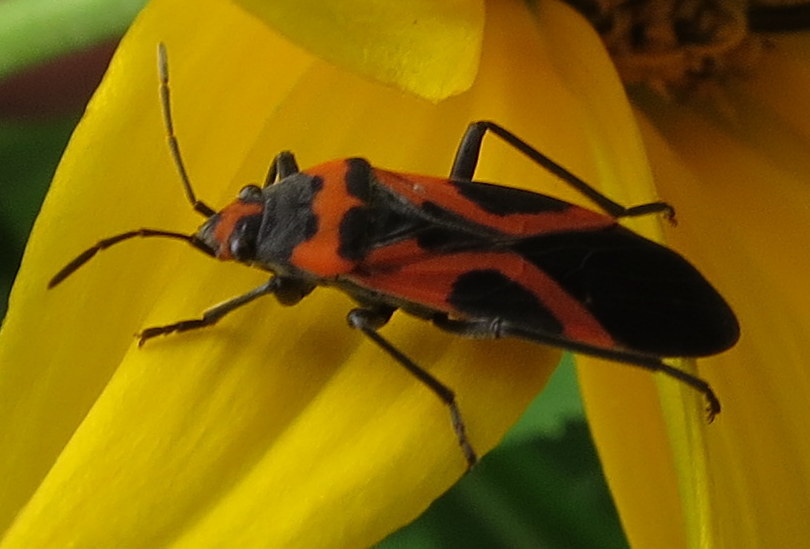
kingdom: Animalia
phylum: Arthropoda
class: Insecta
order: Hemiptera
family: Lygaeidae
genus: Lygaeus
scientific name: Lygaeus turcicus
